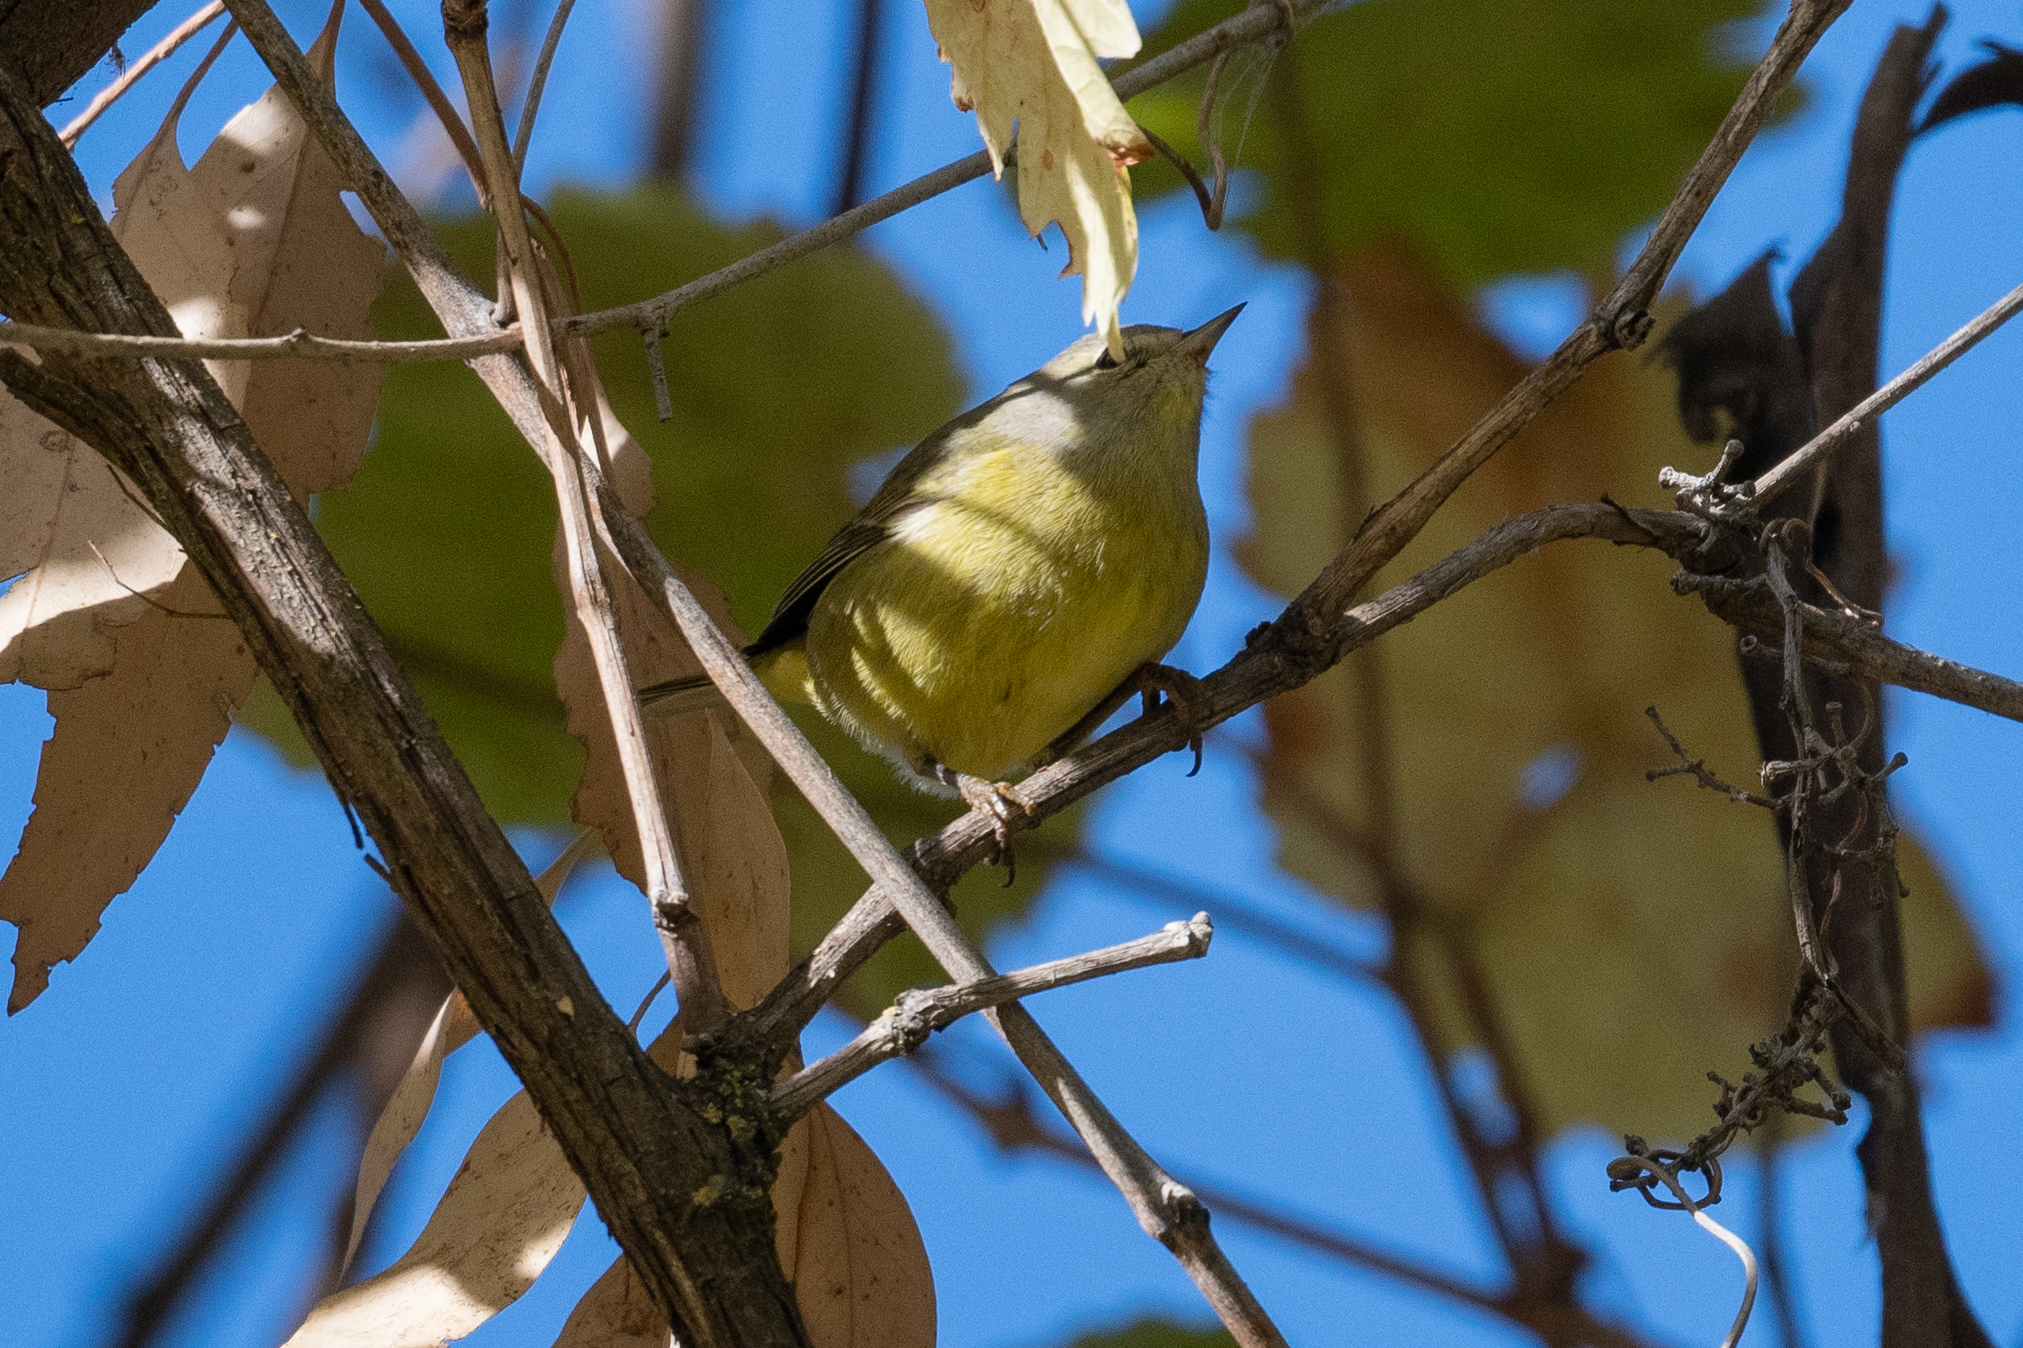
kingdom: Animalia
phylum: Chordata
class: Aves
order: Passeriformes
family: Parulidae
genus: Leiothlypis
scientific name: Leiothlypis celata
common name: Orange-crowned warbler
